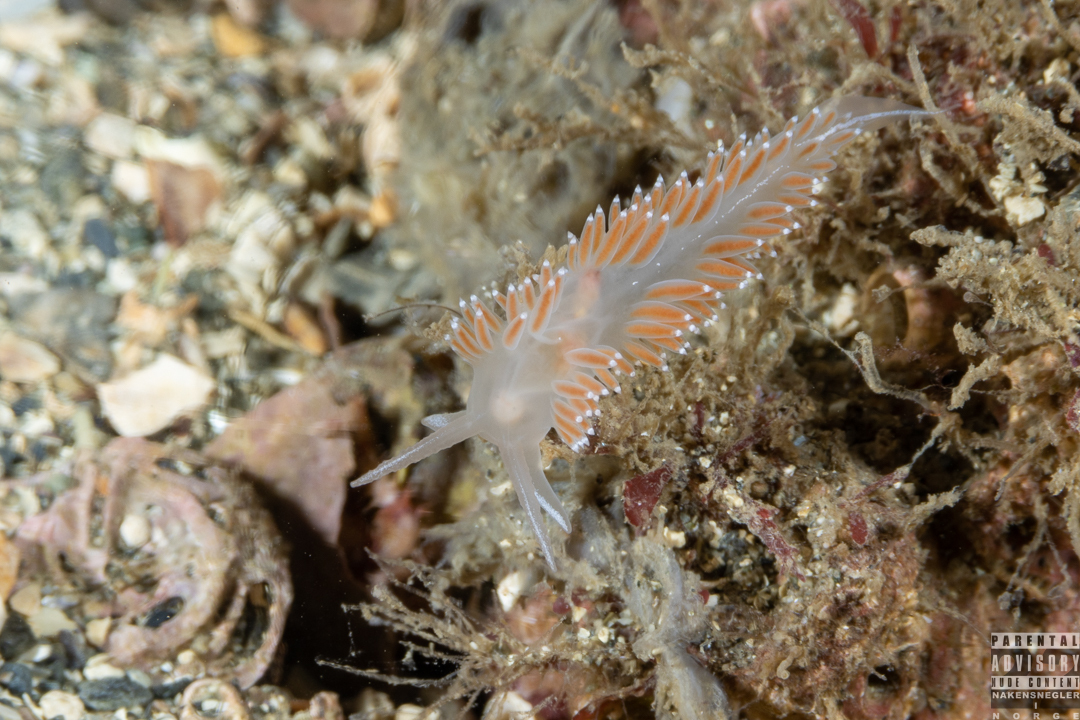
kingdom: Animalia
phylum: Mollusca
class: Gastropoda
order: Nudibranchia
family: Coryphellidae
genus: Coryphella
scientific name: Coryphella verrucosa
